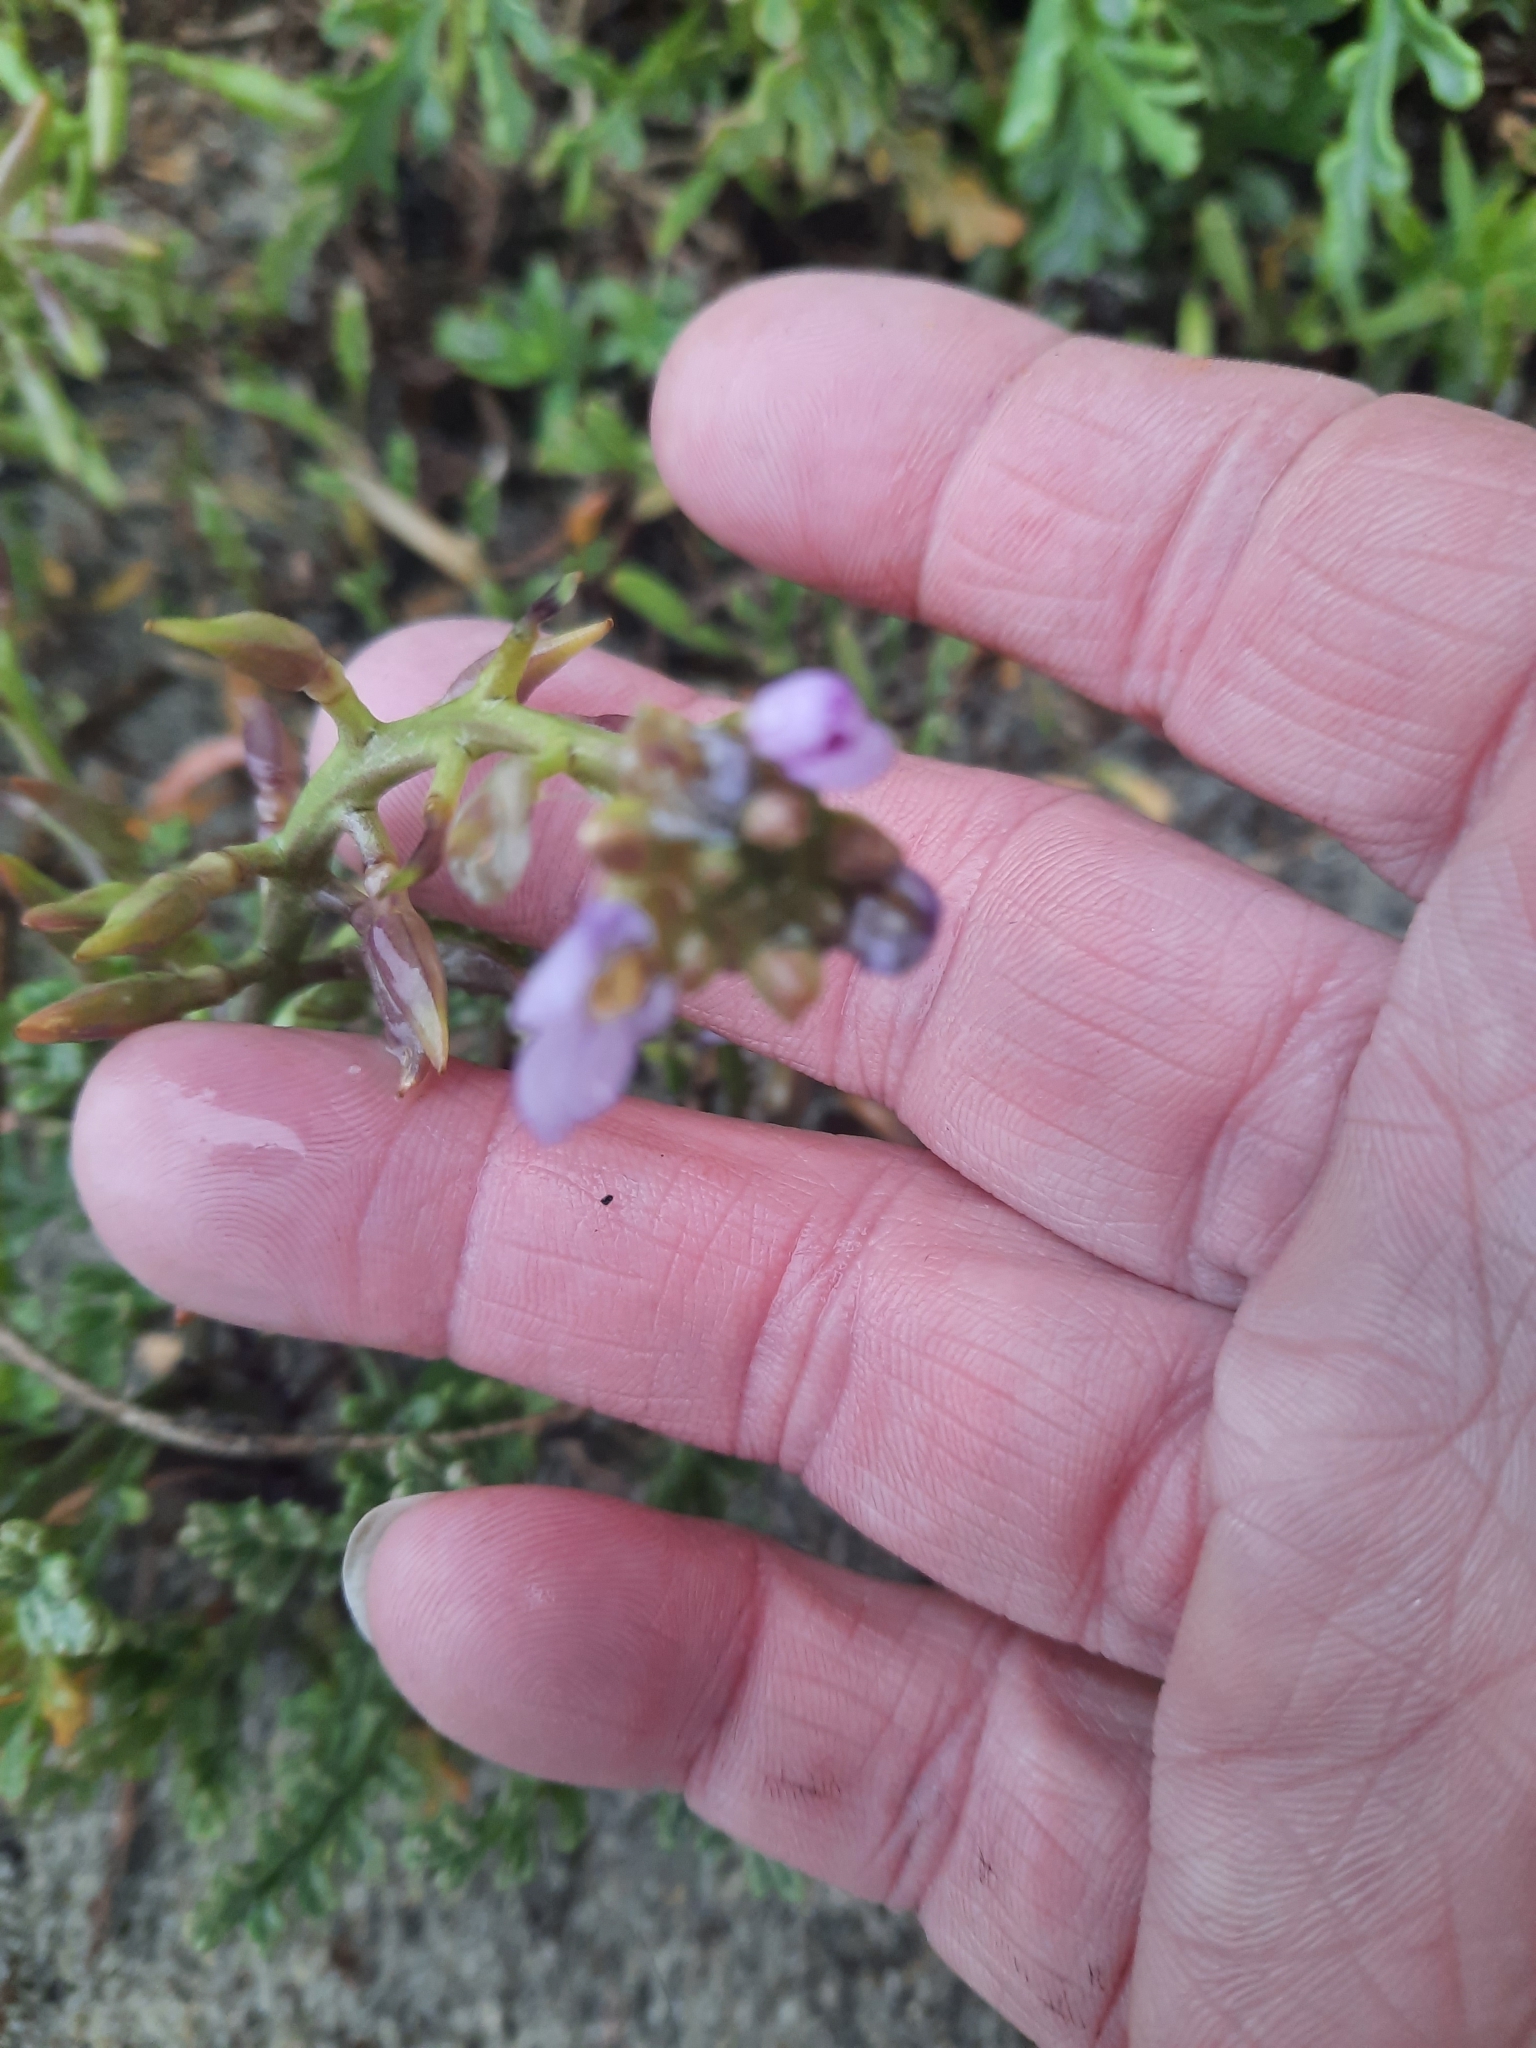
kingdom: Plantae
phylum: Tracheophyta
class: Magnoliopsida
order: Brassicales
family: Brassicaceae
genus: Cakile
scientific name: Cakile maritima
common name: Sea rocket
